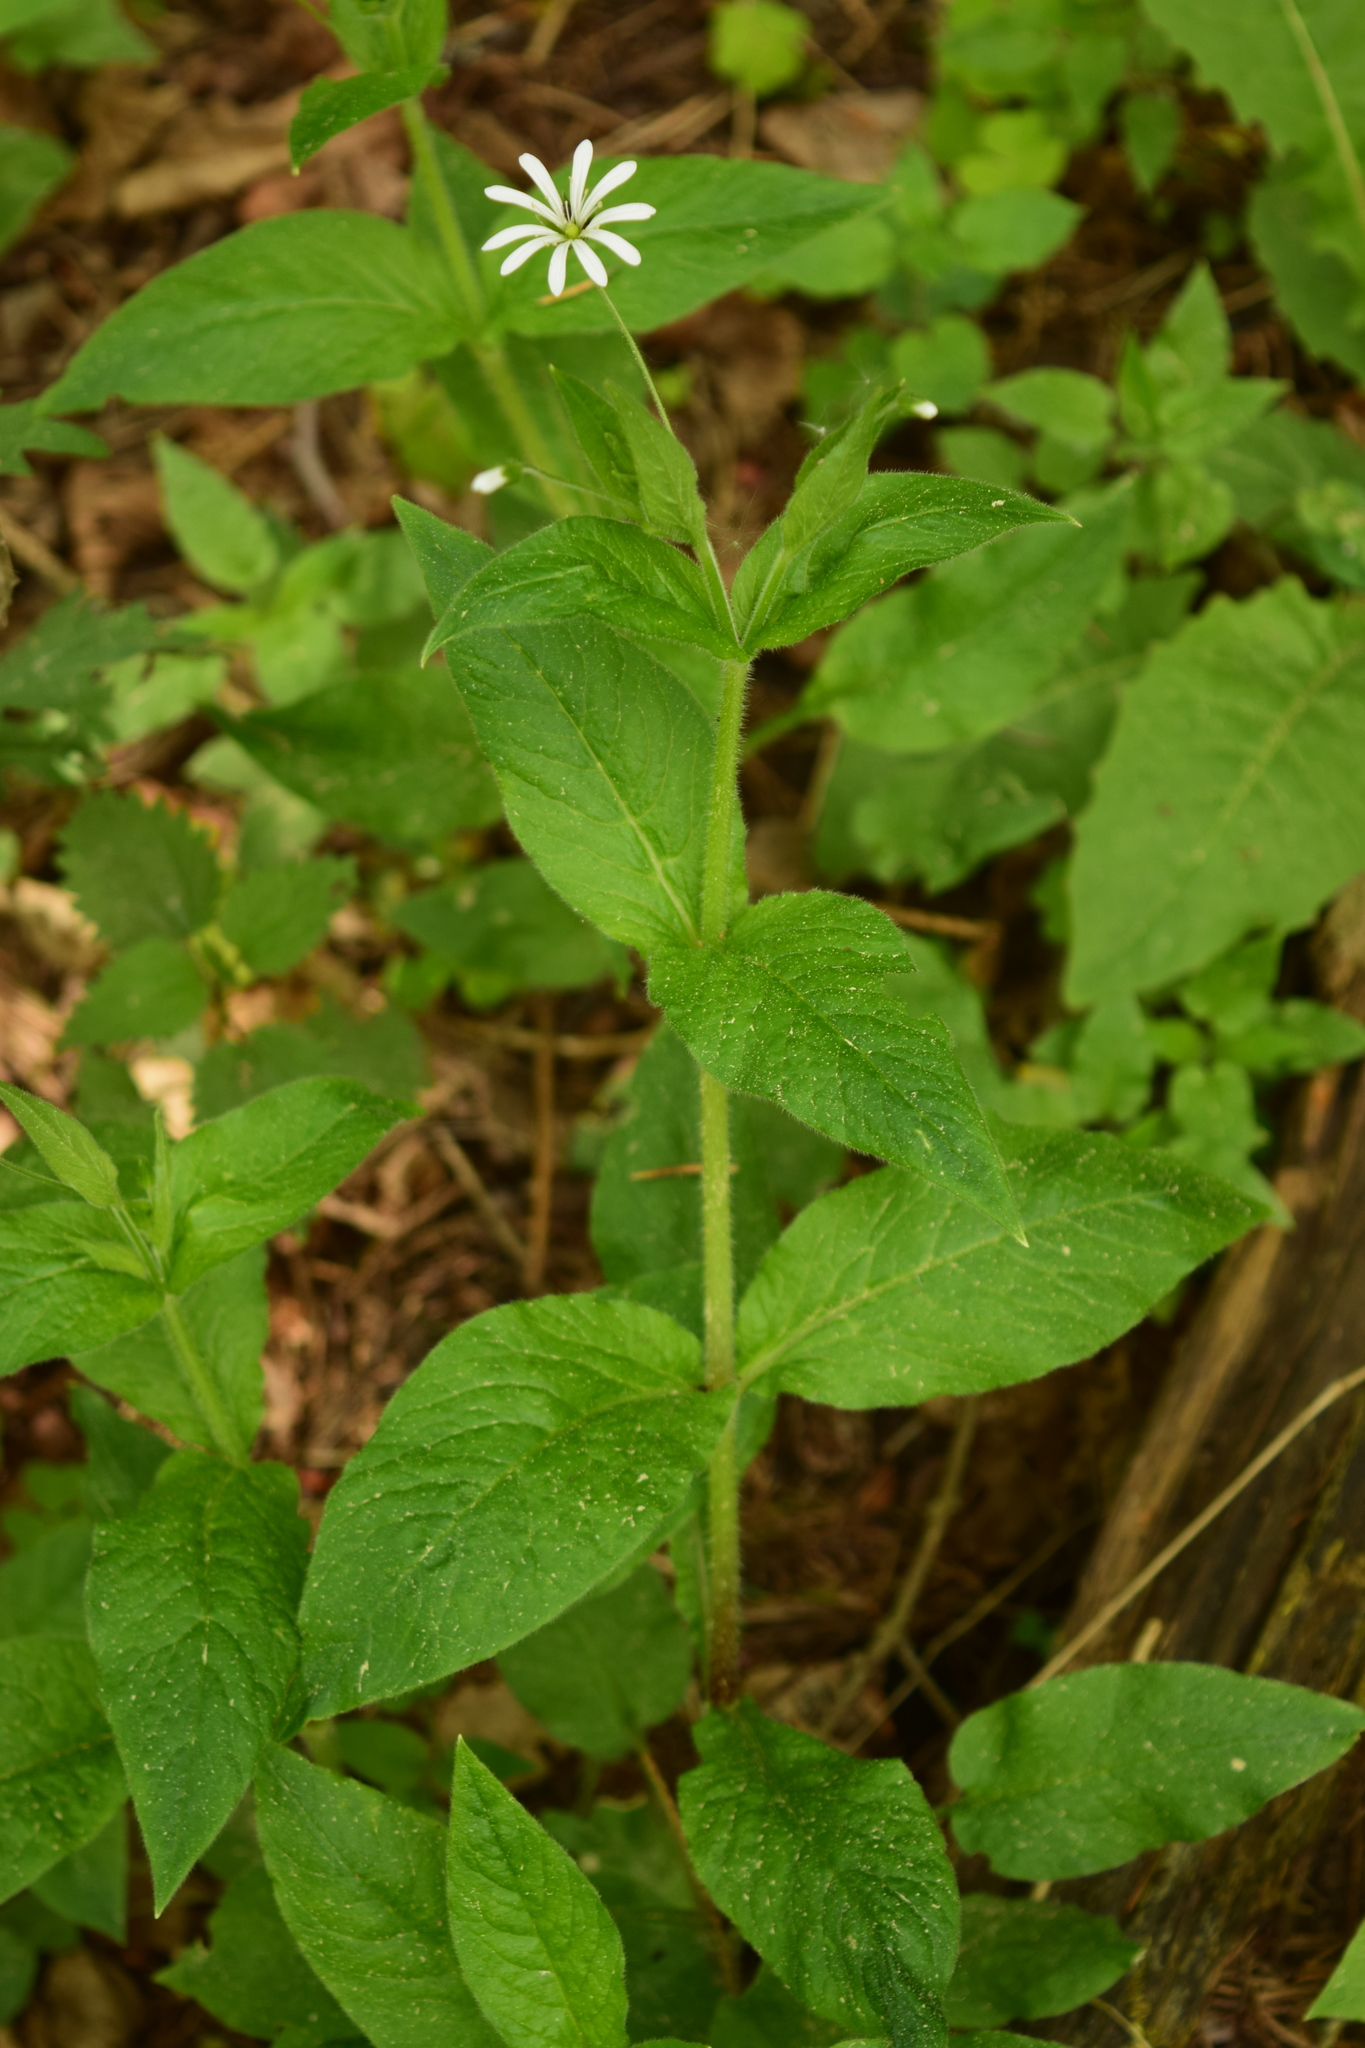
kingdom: Plantae
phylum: Tracheophyta
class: Magnoliopsida
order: Caryophyllales
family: Caryophyllaceae
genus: Stellaria
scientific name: Stellaria nemorum
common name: Wood stitchwort
